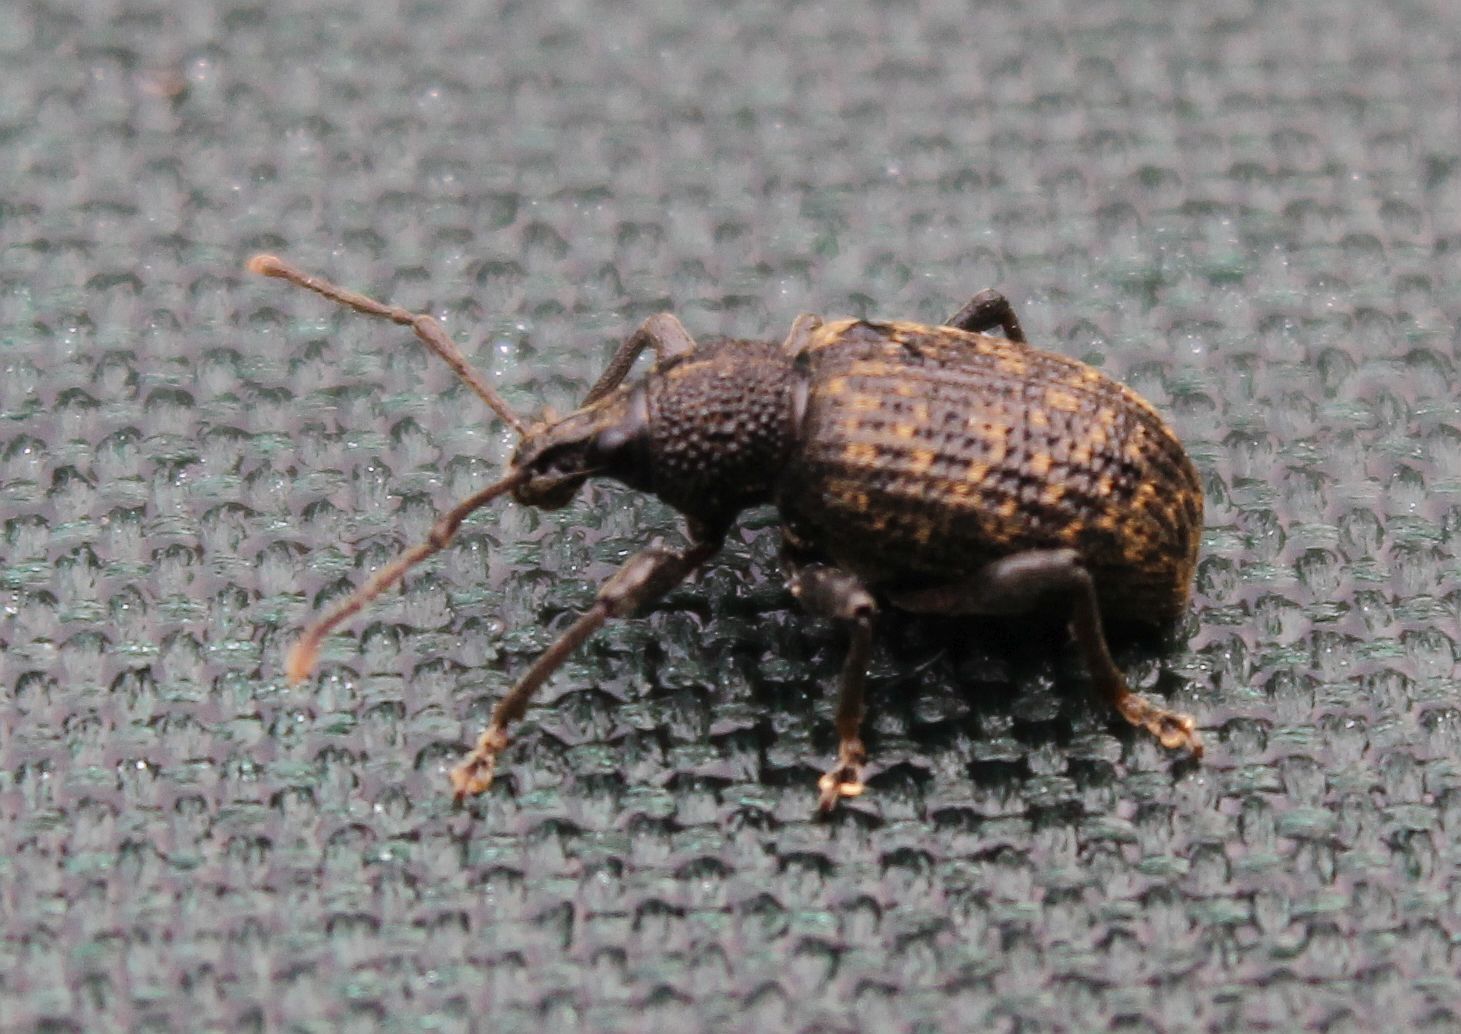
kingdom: Animalia
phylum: Arthropoda
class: Insecta
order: Coleoptera
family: Curculionidae
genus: Otiorhynchus
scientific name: Otiorhynchus sulcatus
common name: Black vine weevil
